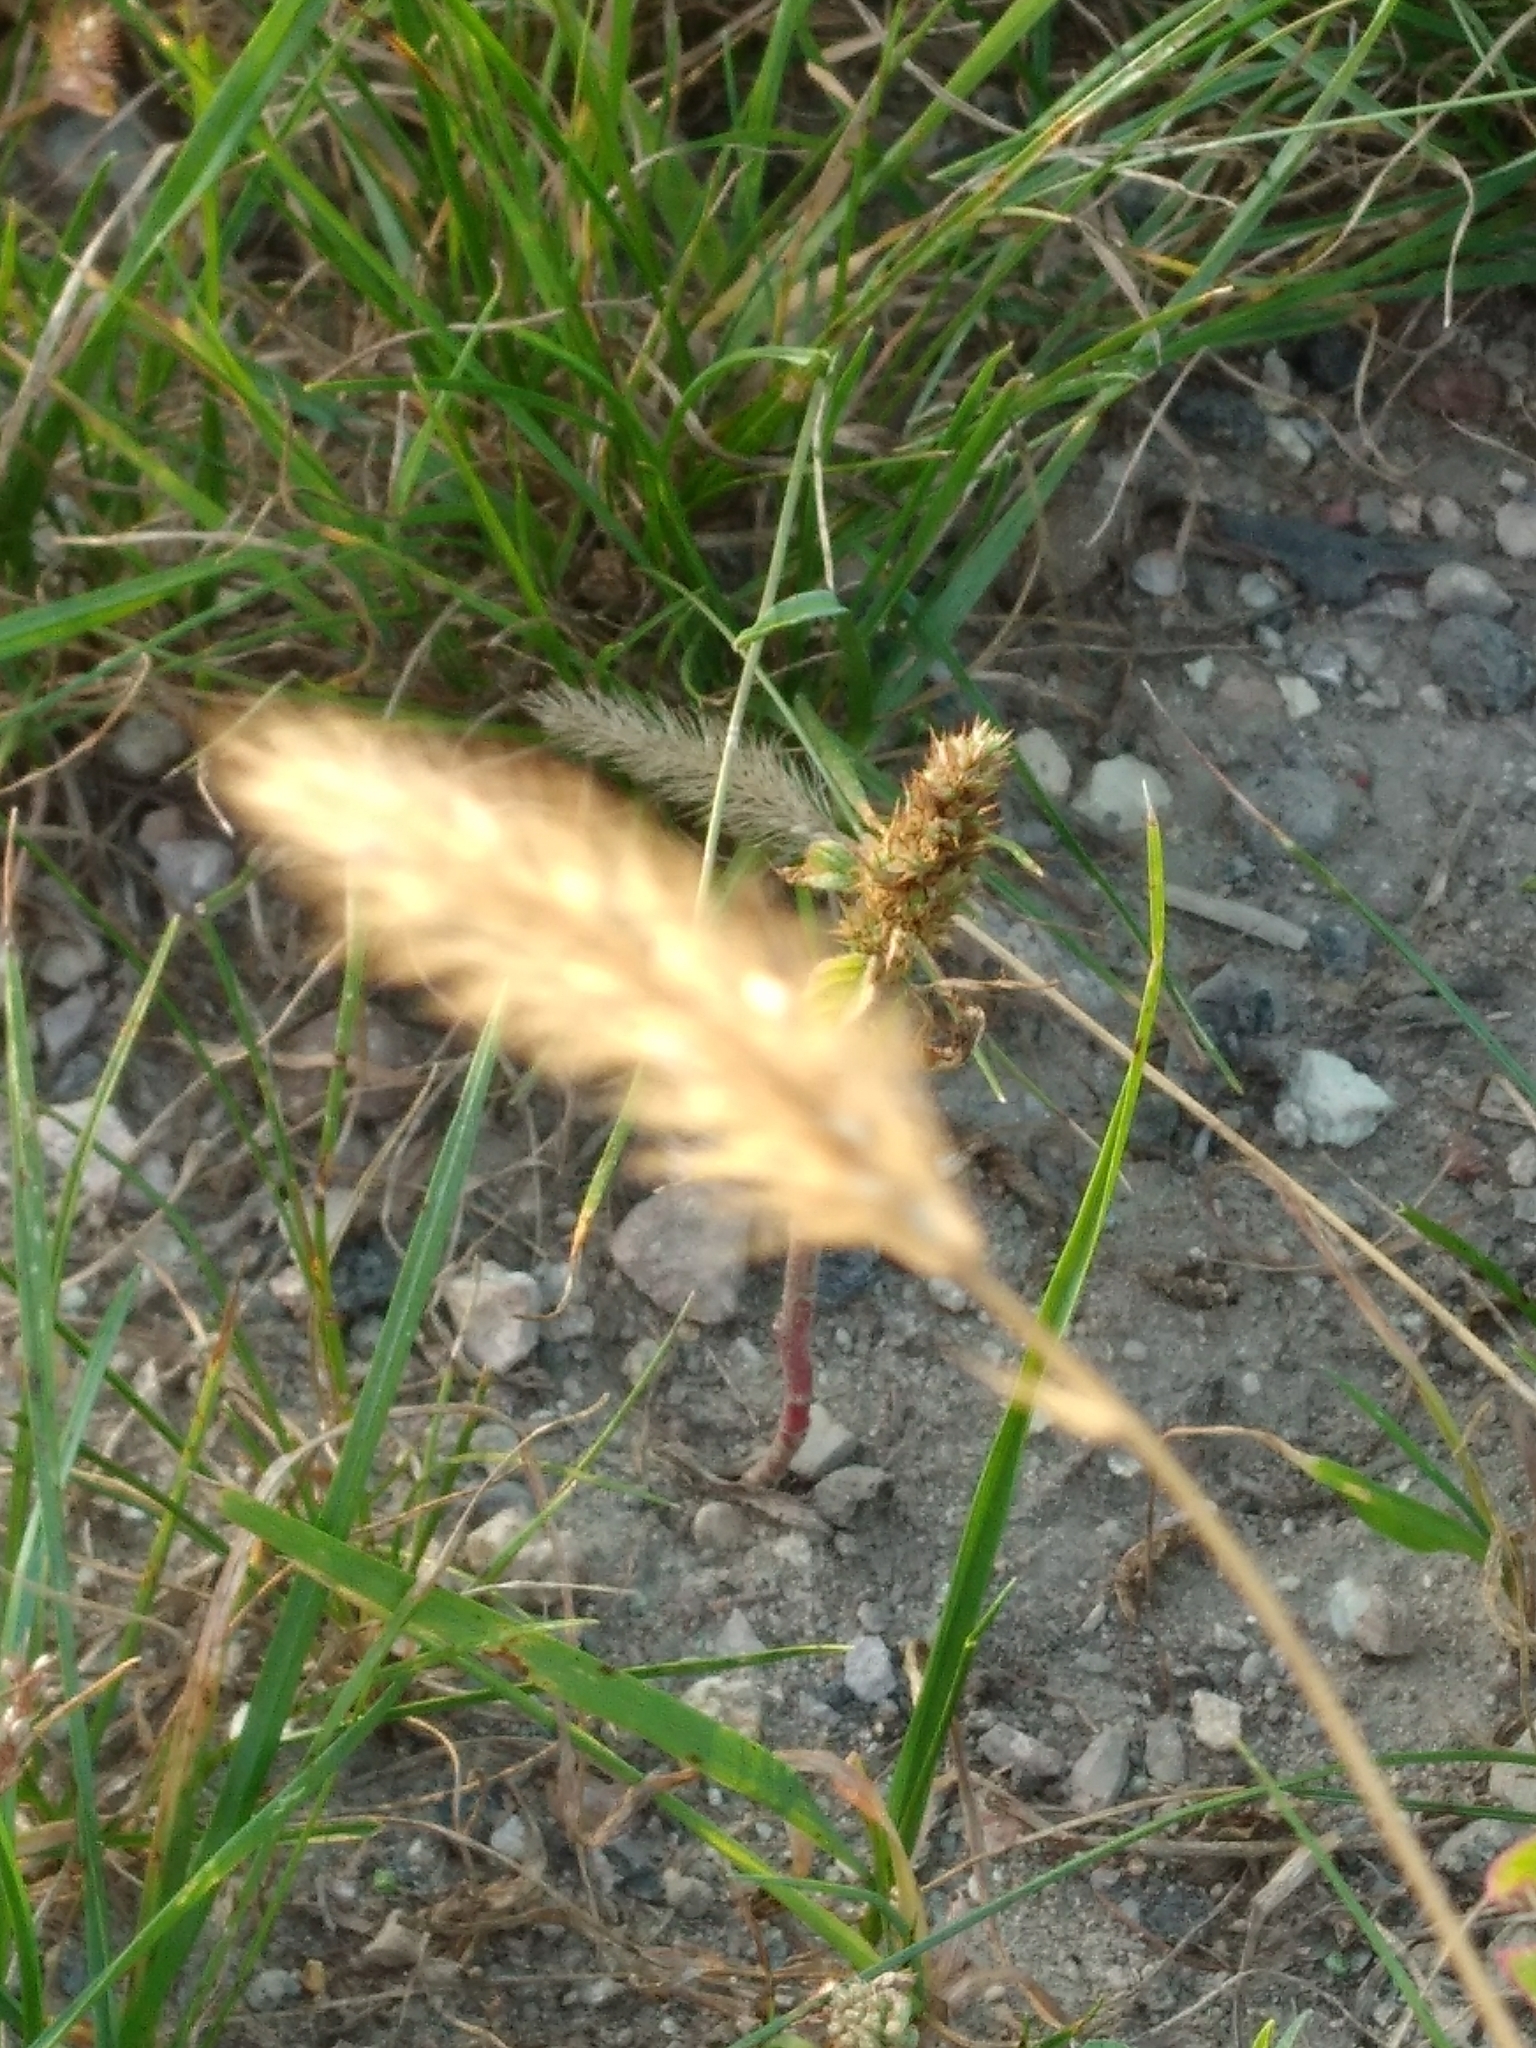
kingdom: Plantae
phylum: Tracheophyta
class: Liliopsida
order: Poales
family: Poaceae
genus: Setaria
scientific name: Setaria pumila
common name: Yellow bristle-grass
